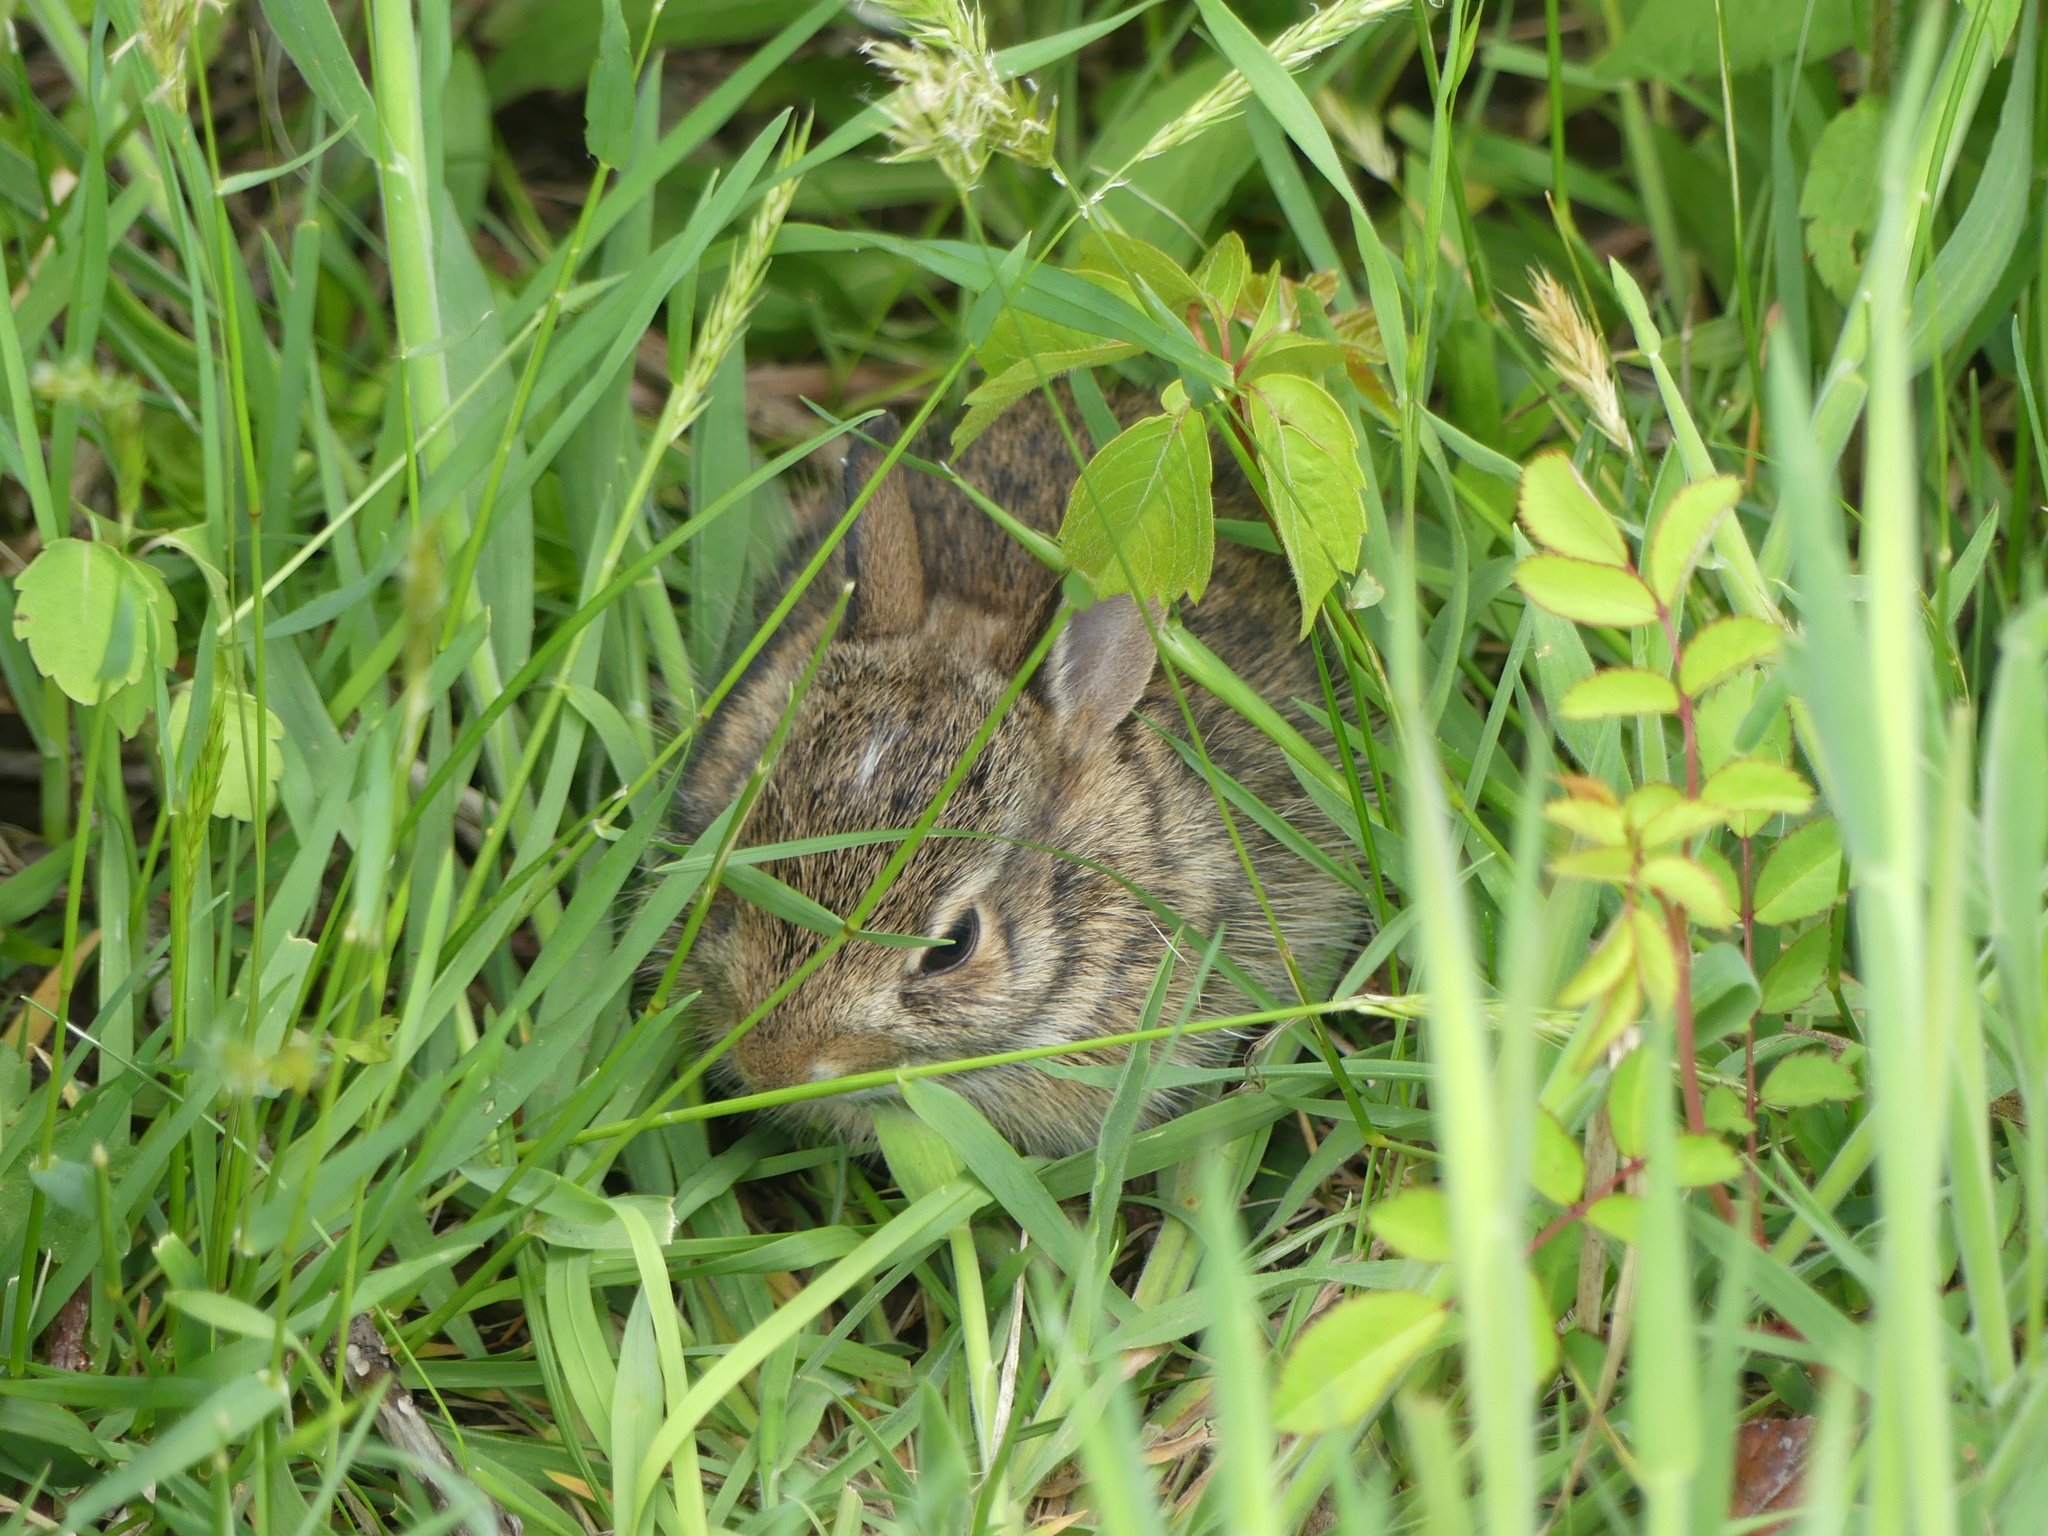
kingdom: Animalia
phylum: Chordata
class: Mammalia
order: Lagomorpha
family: Leporidae
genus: Sylvilagus
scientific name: Sylvilagus floridanus
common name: Eastern cottontail
